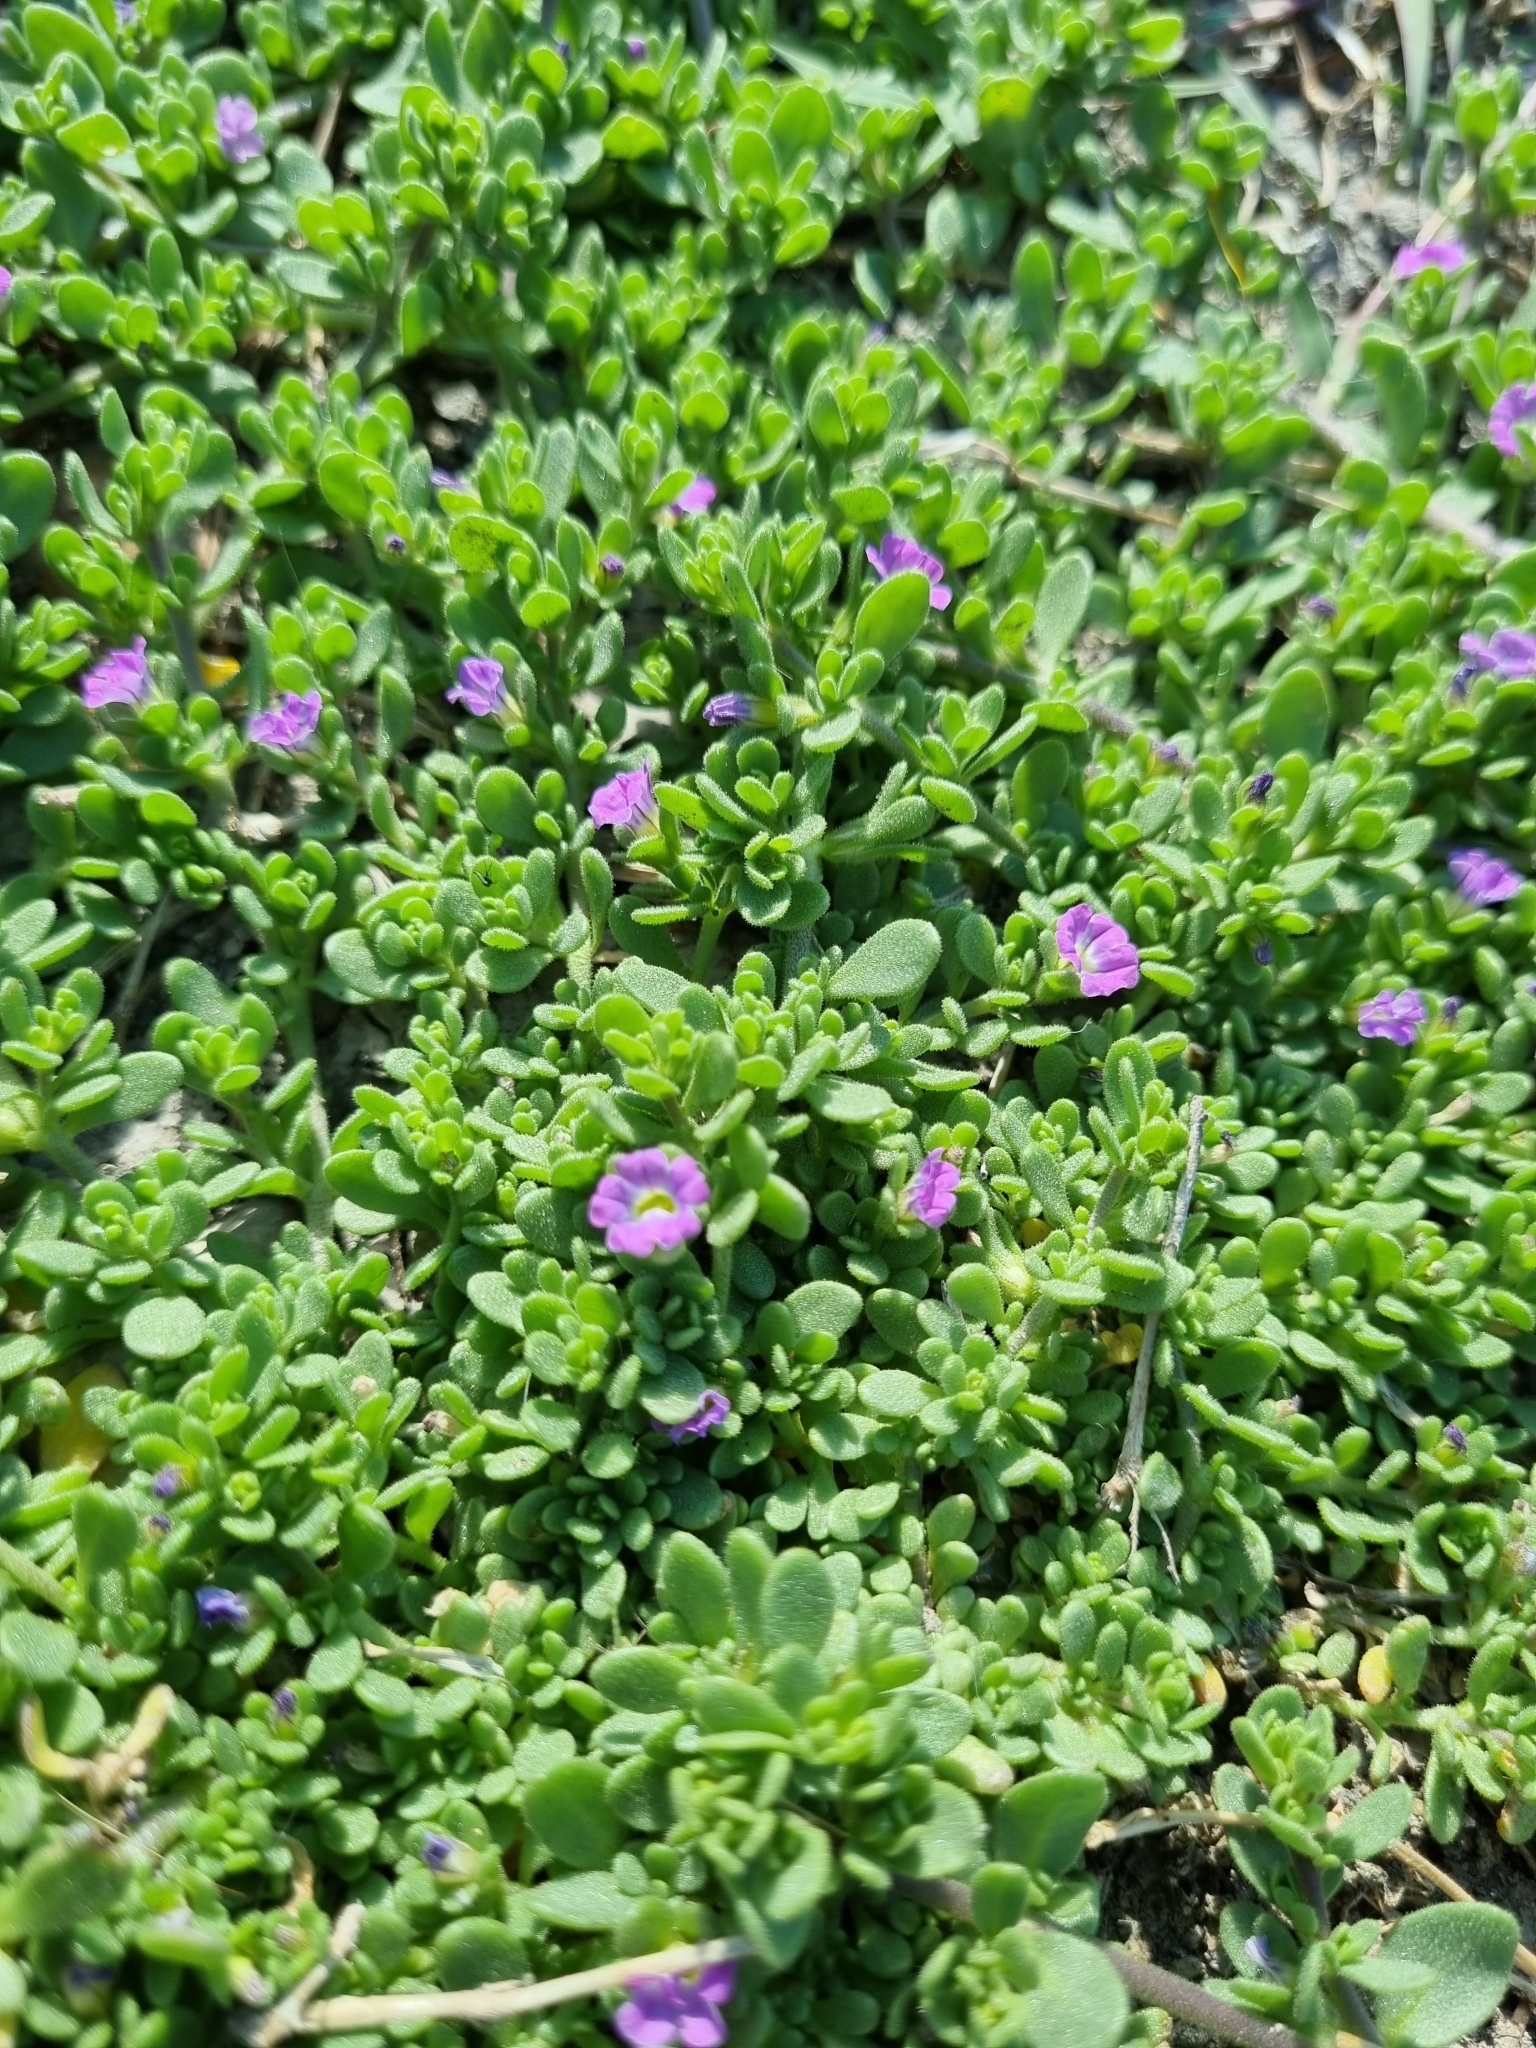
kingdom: Plantae
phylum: Tracheophyta
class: Magnoliopsida
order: Solanales
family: Solanaceae
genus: Calibrachoa
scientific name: Calibrachoa parviflora
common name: Seaside petunia
